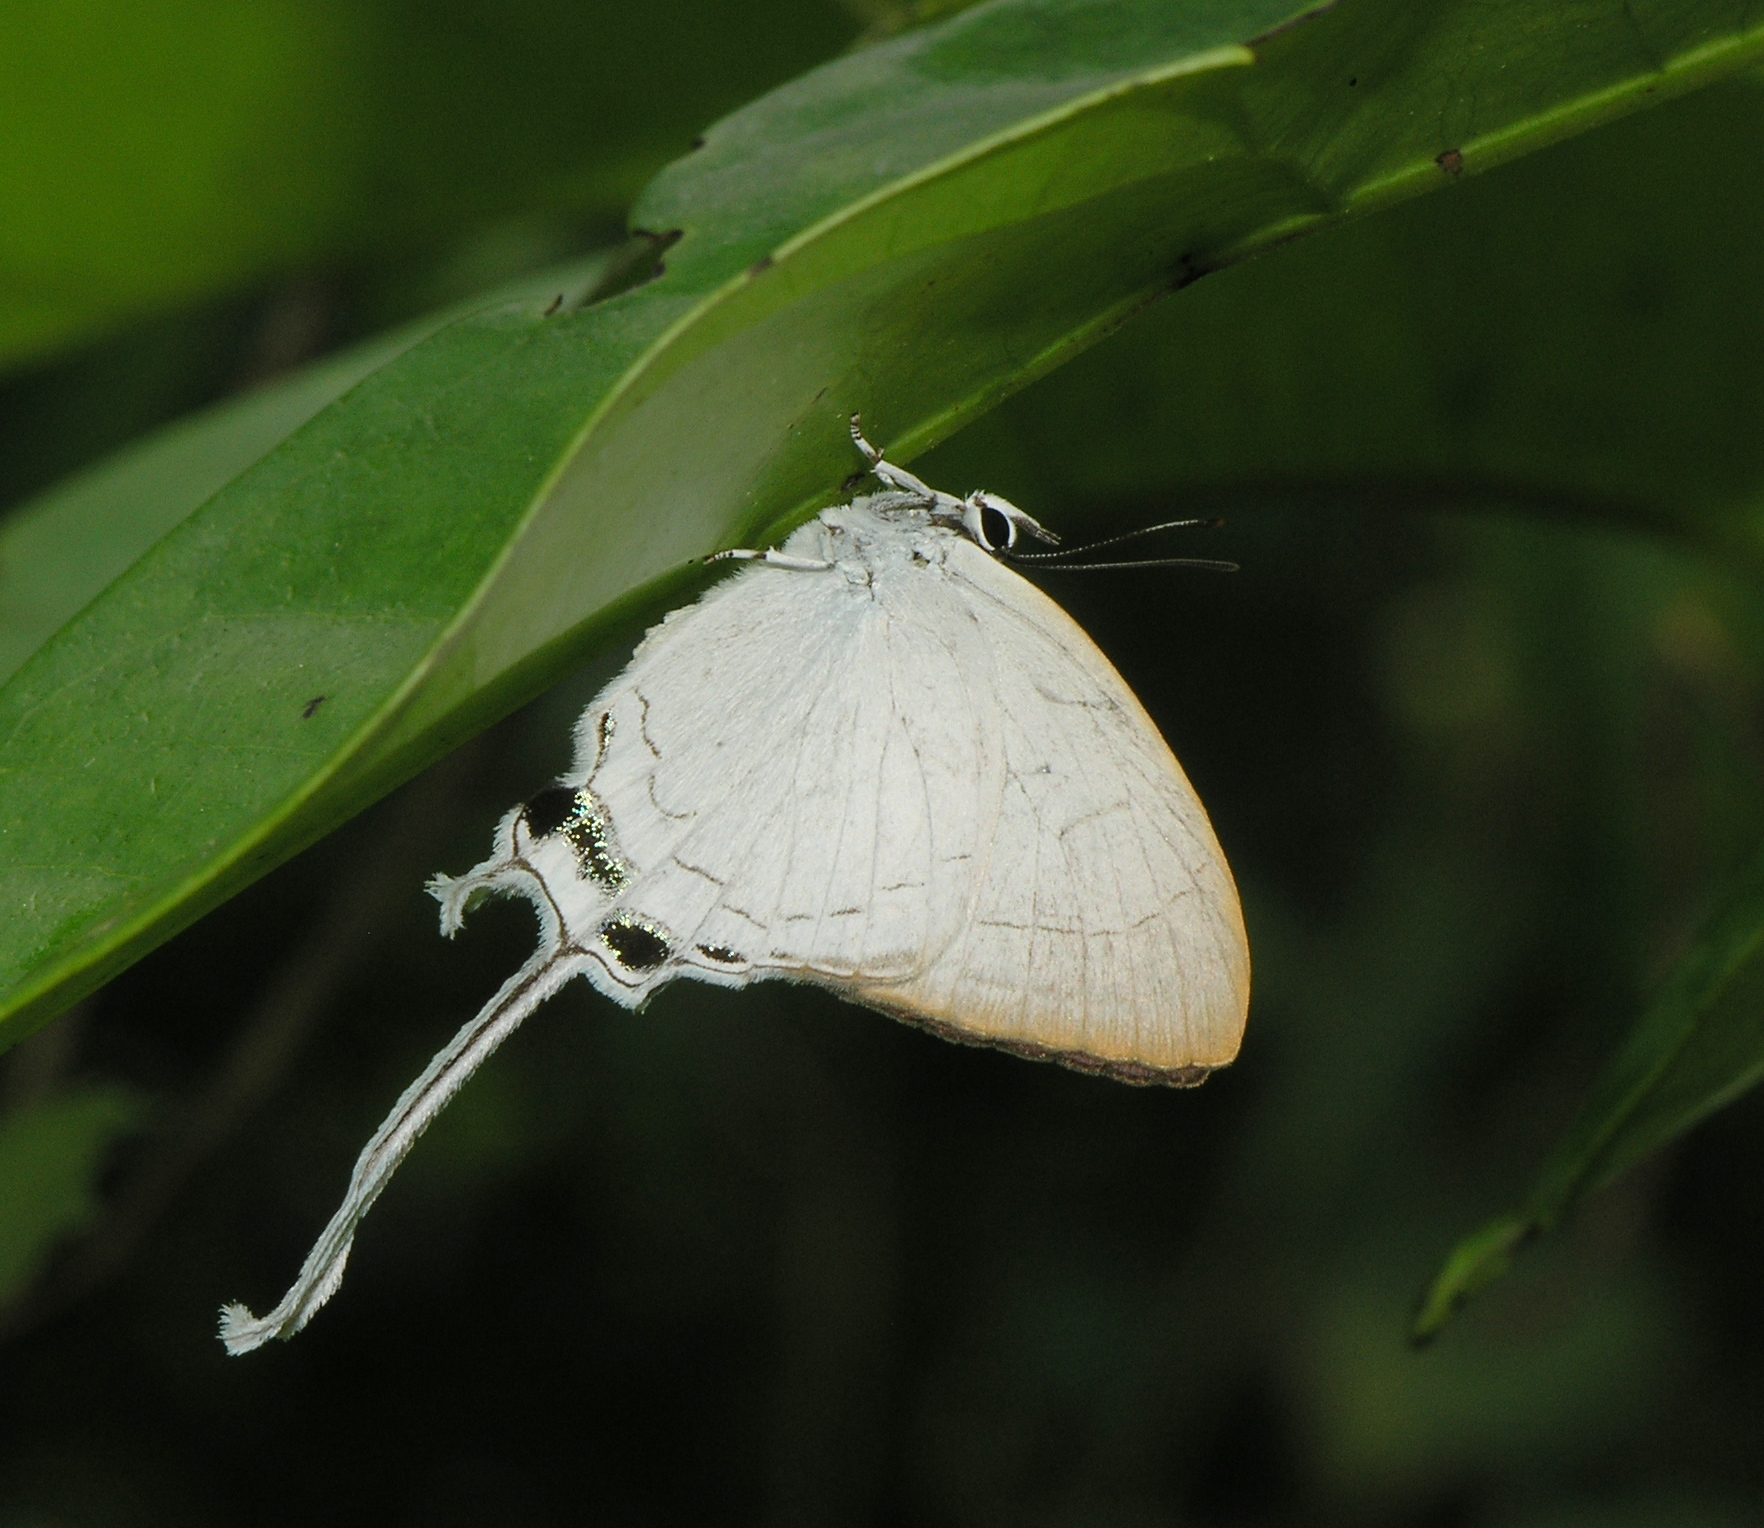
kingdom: Animalia
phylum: Arthropoda
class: Insecta
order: Lepidoptera
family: Lycaenidae
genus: Cheritra
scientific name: Cheritra freja
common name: Common imperial
